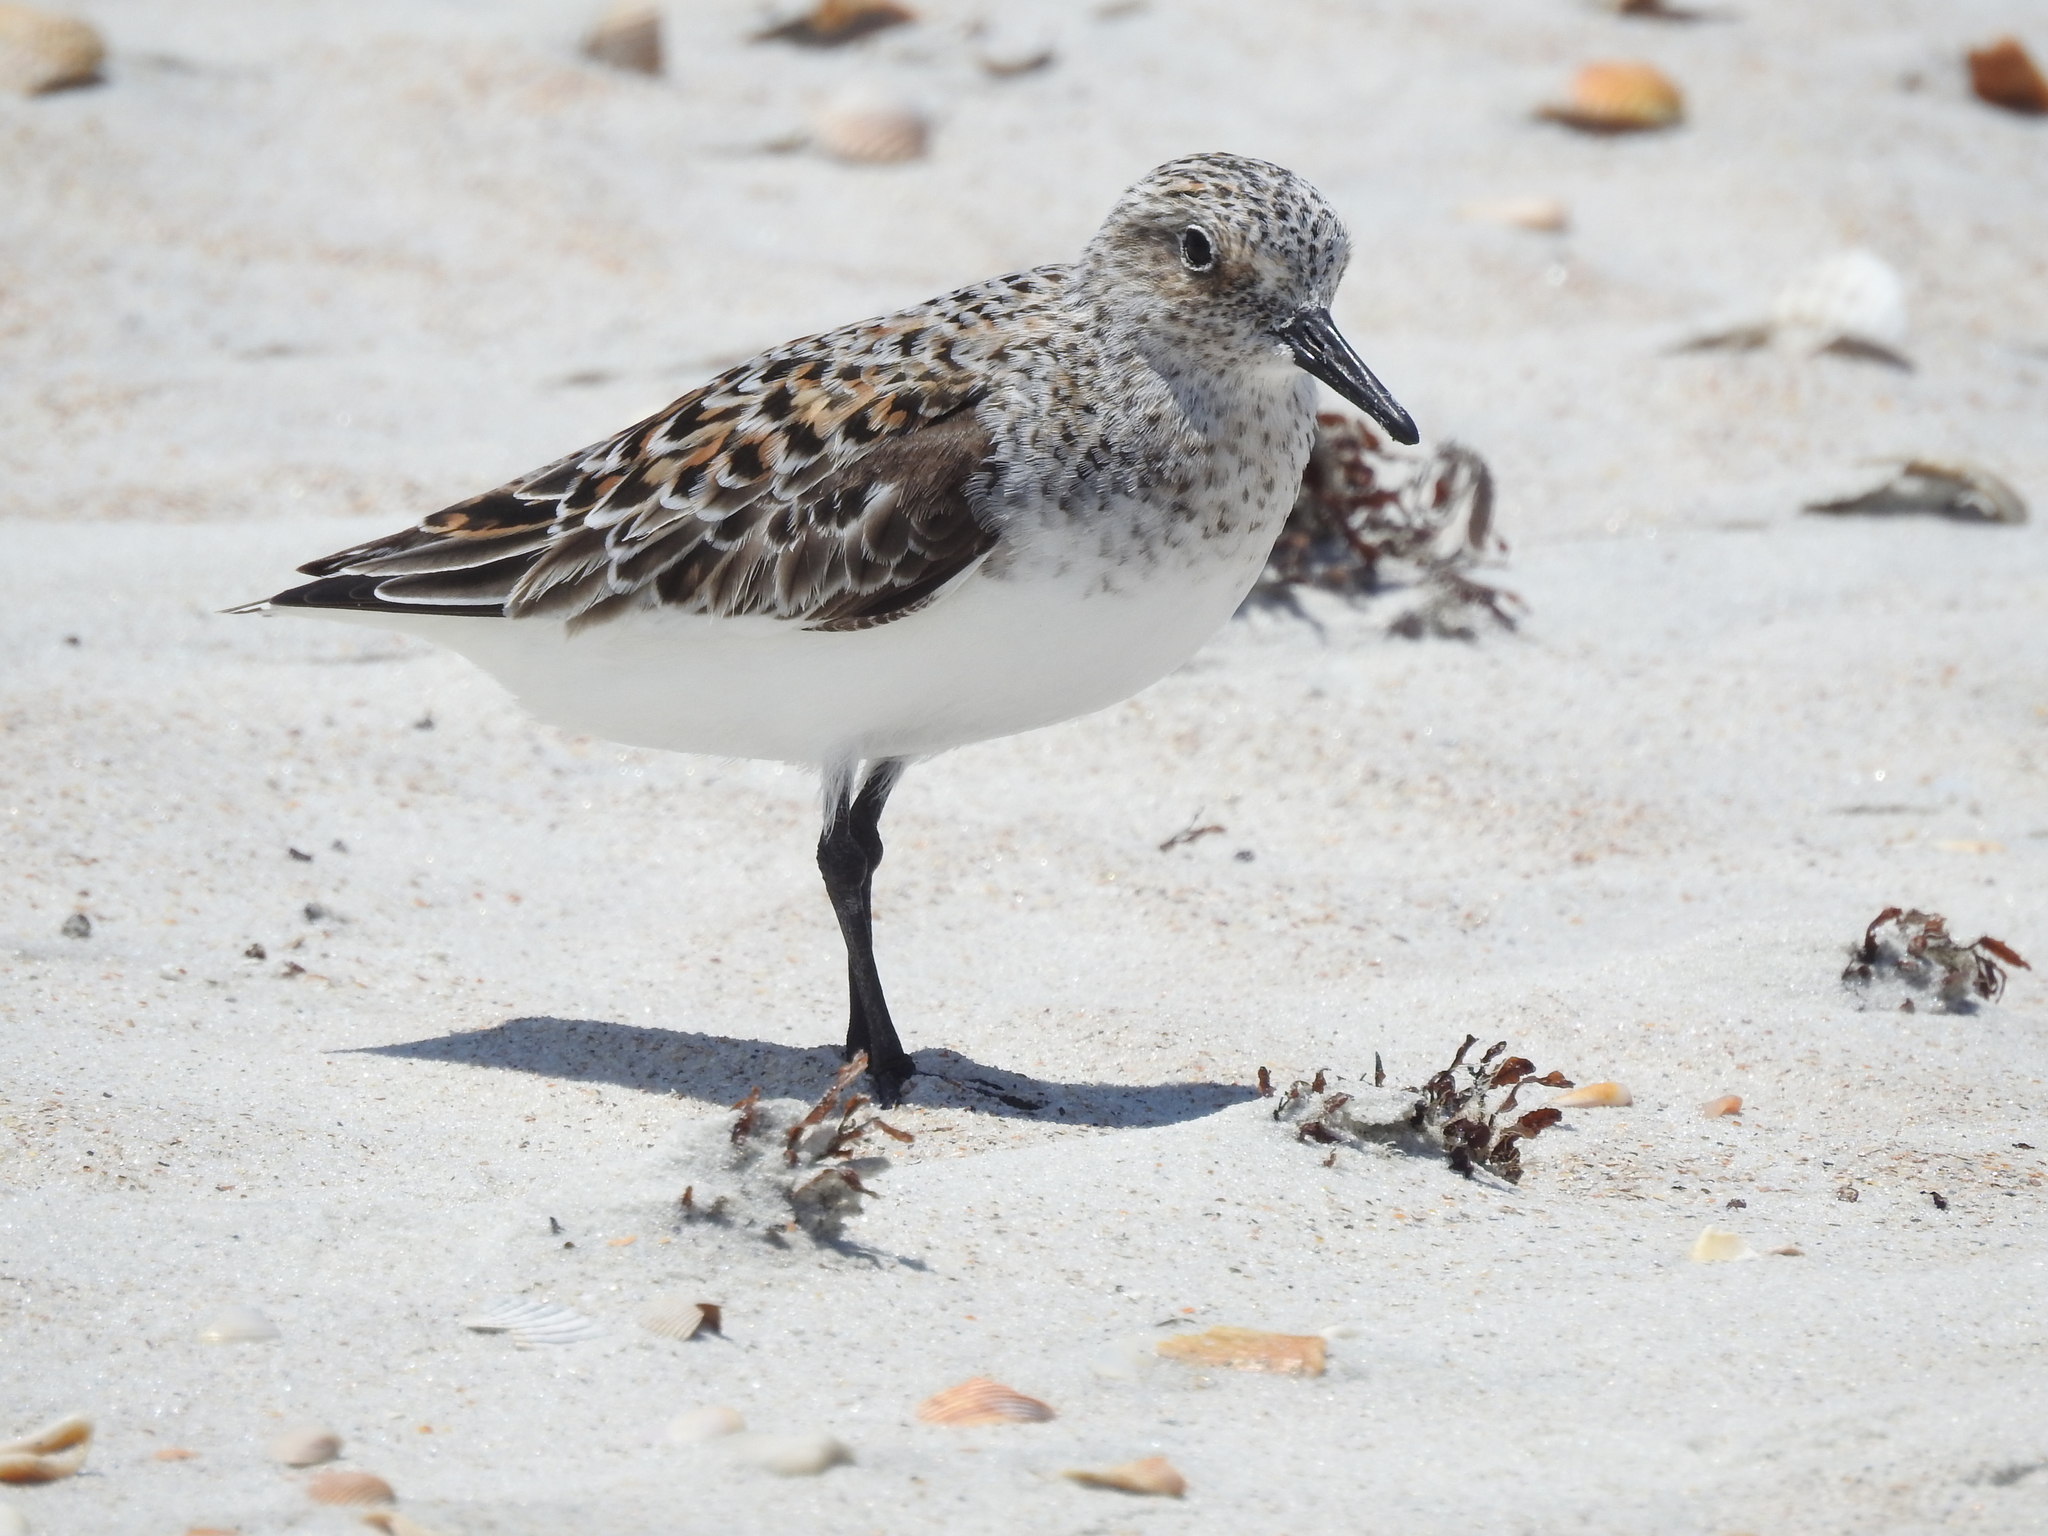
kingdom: Animalia
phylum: Chordata
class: Aves
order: Charadriiformes
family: Scolopacidae
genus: Calidris
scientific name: Calidris alba
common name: Sanderling
